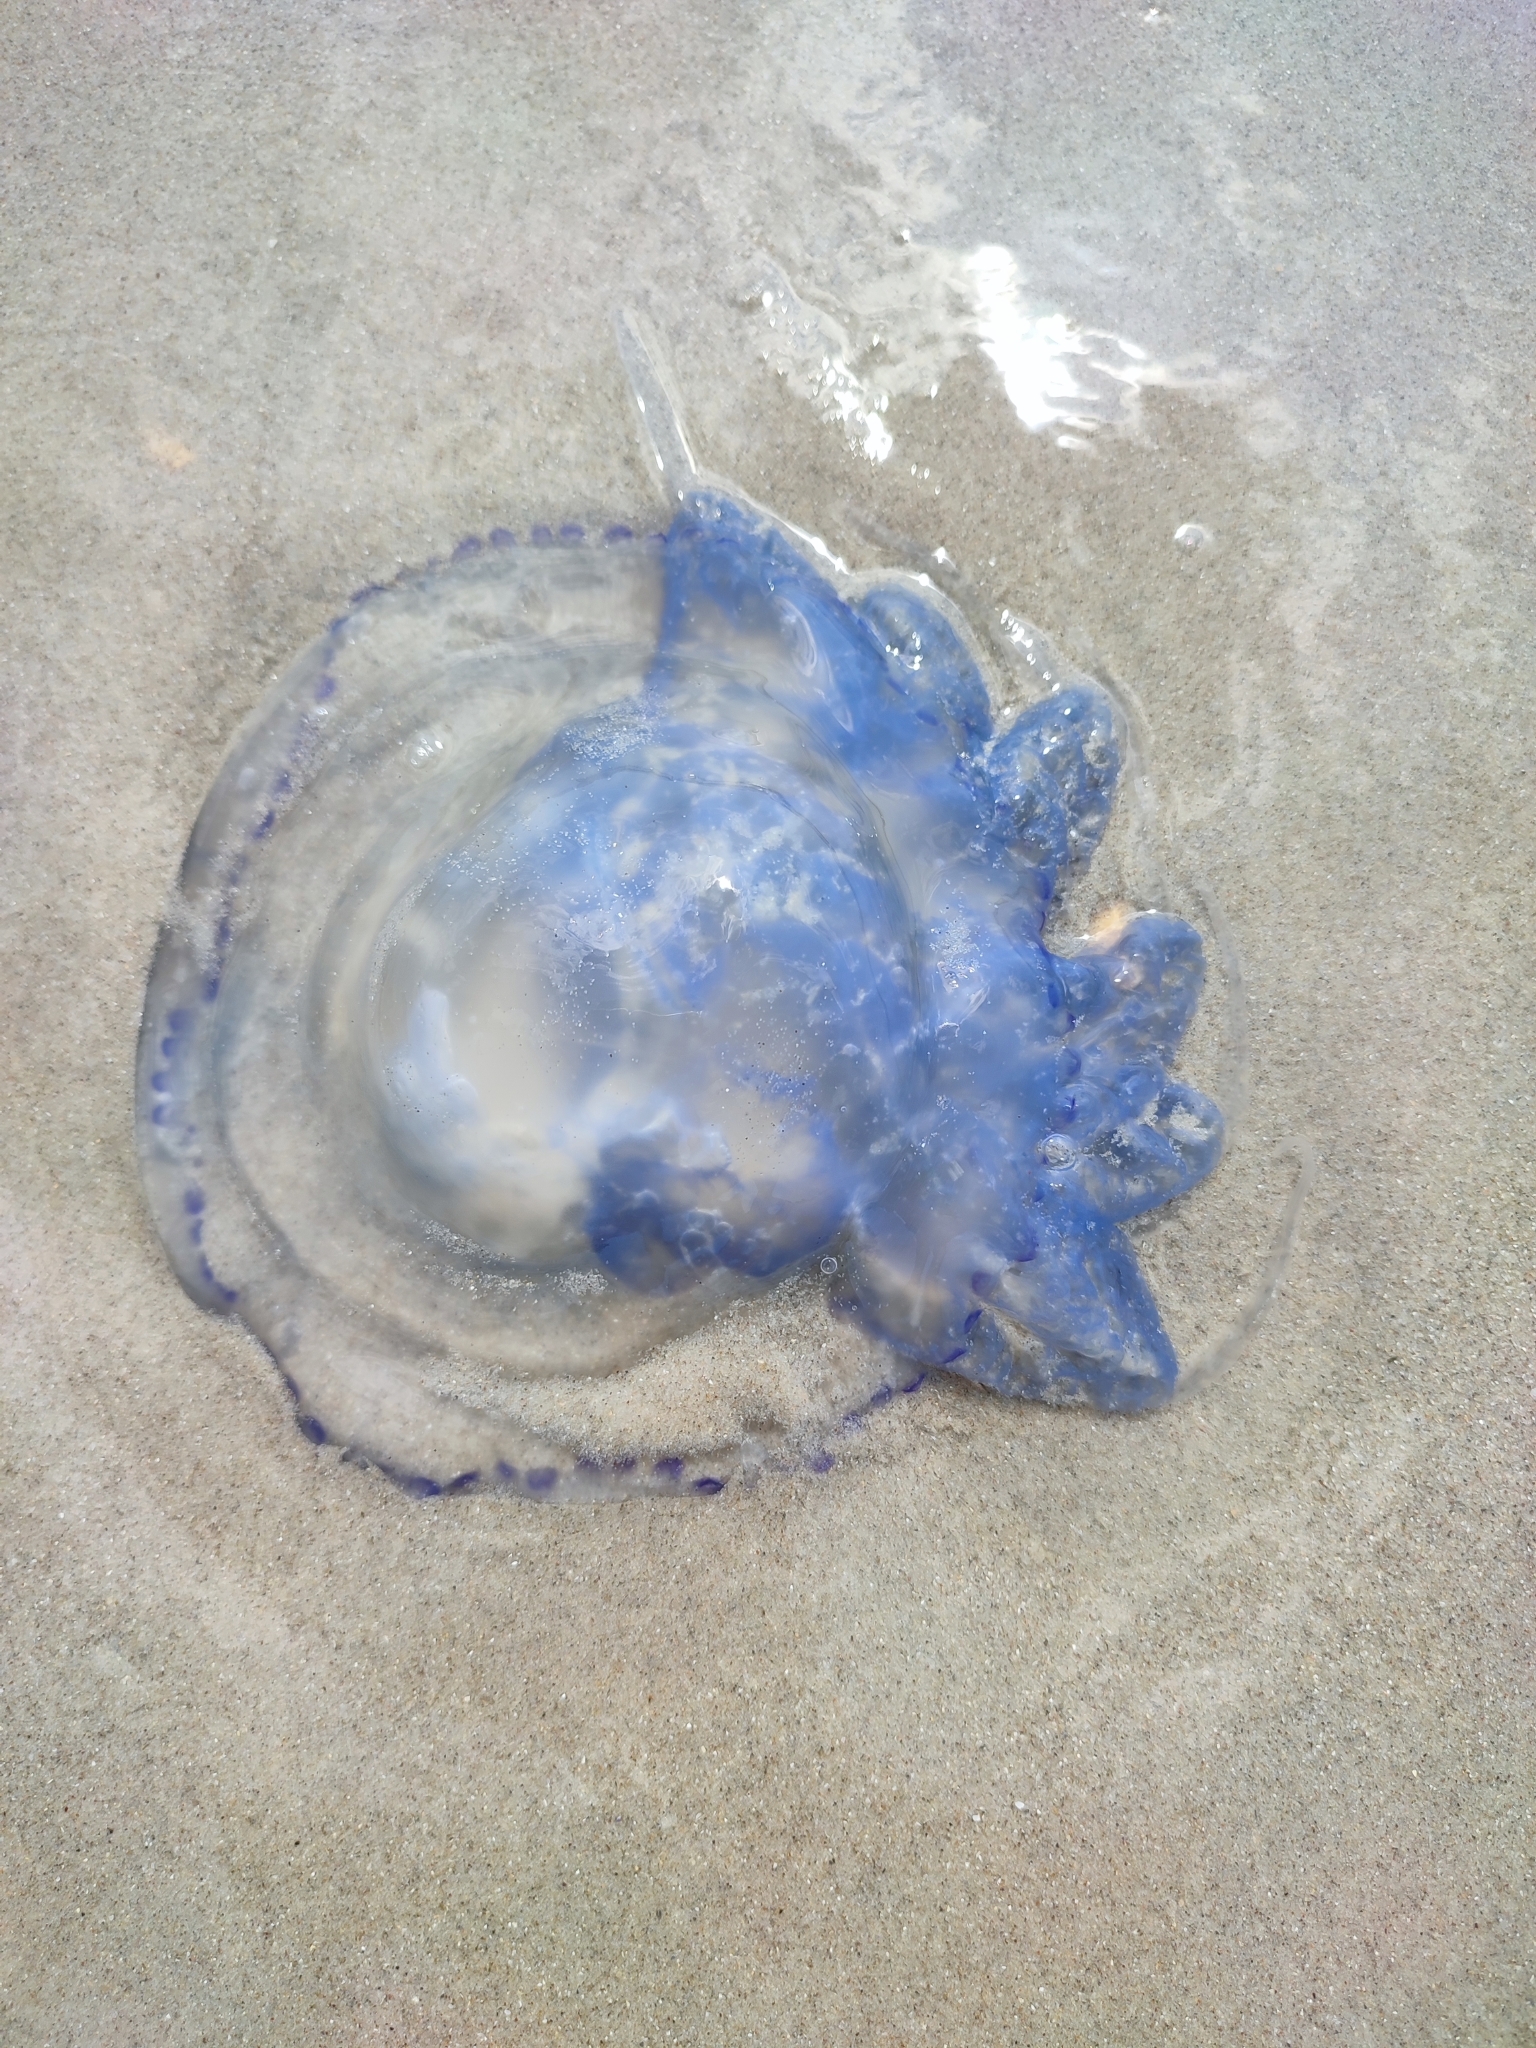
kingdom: Animalia
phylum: Cnidaria
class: Scyphozoa
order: Rhizostomeae
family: Rhizostomatidae
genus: Rhizostoma
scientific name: Rhizostoma pulmo
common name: Barrel jellyfish
